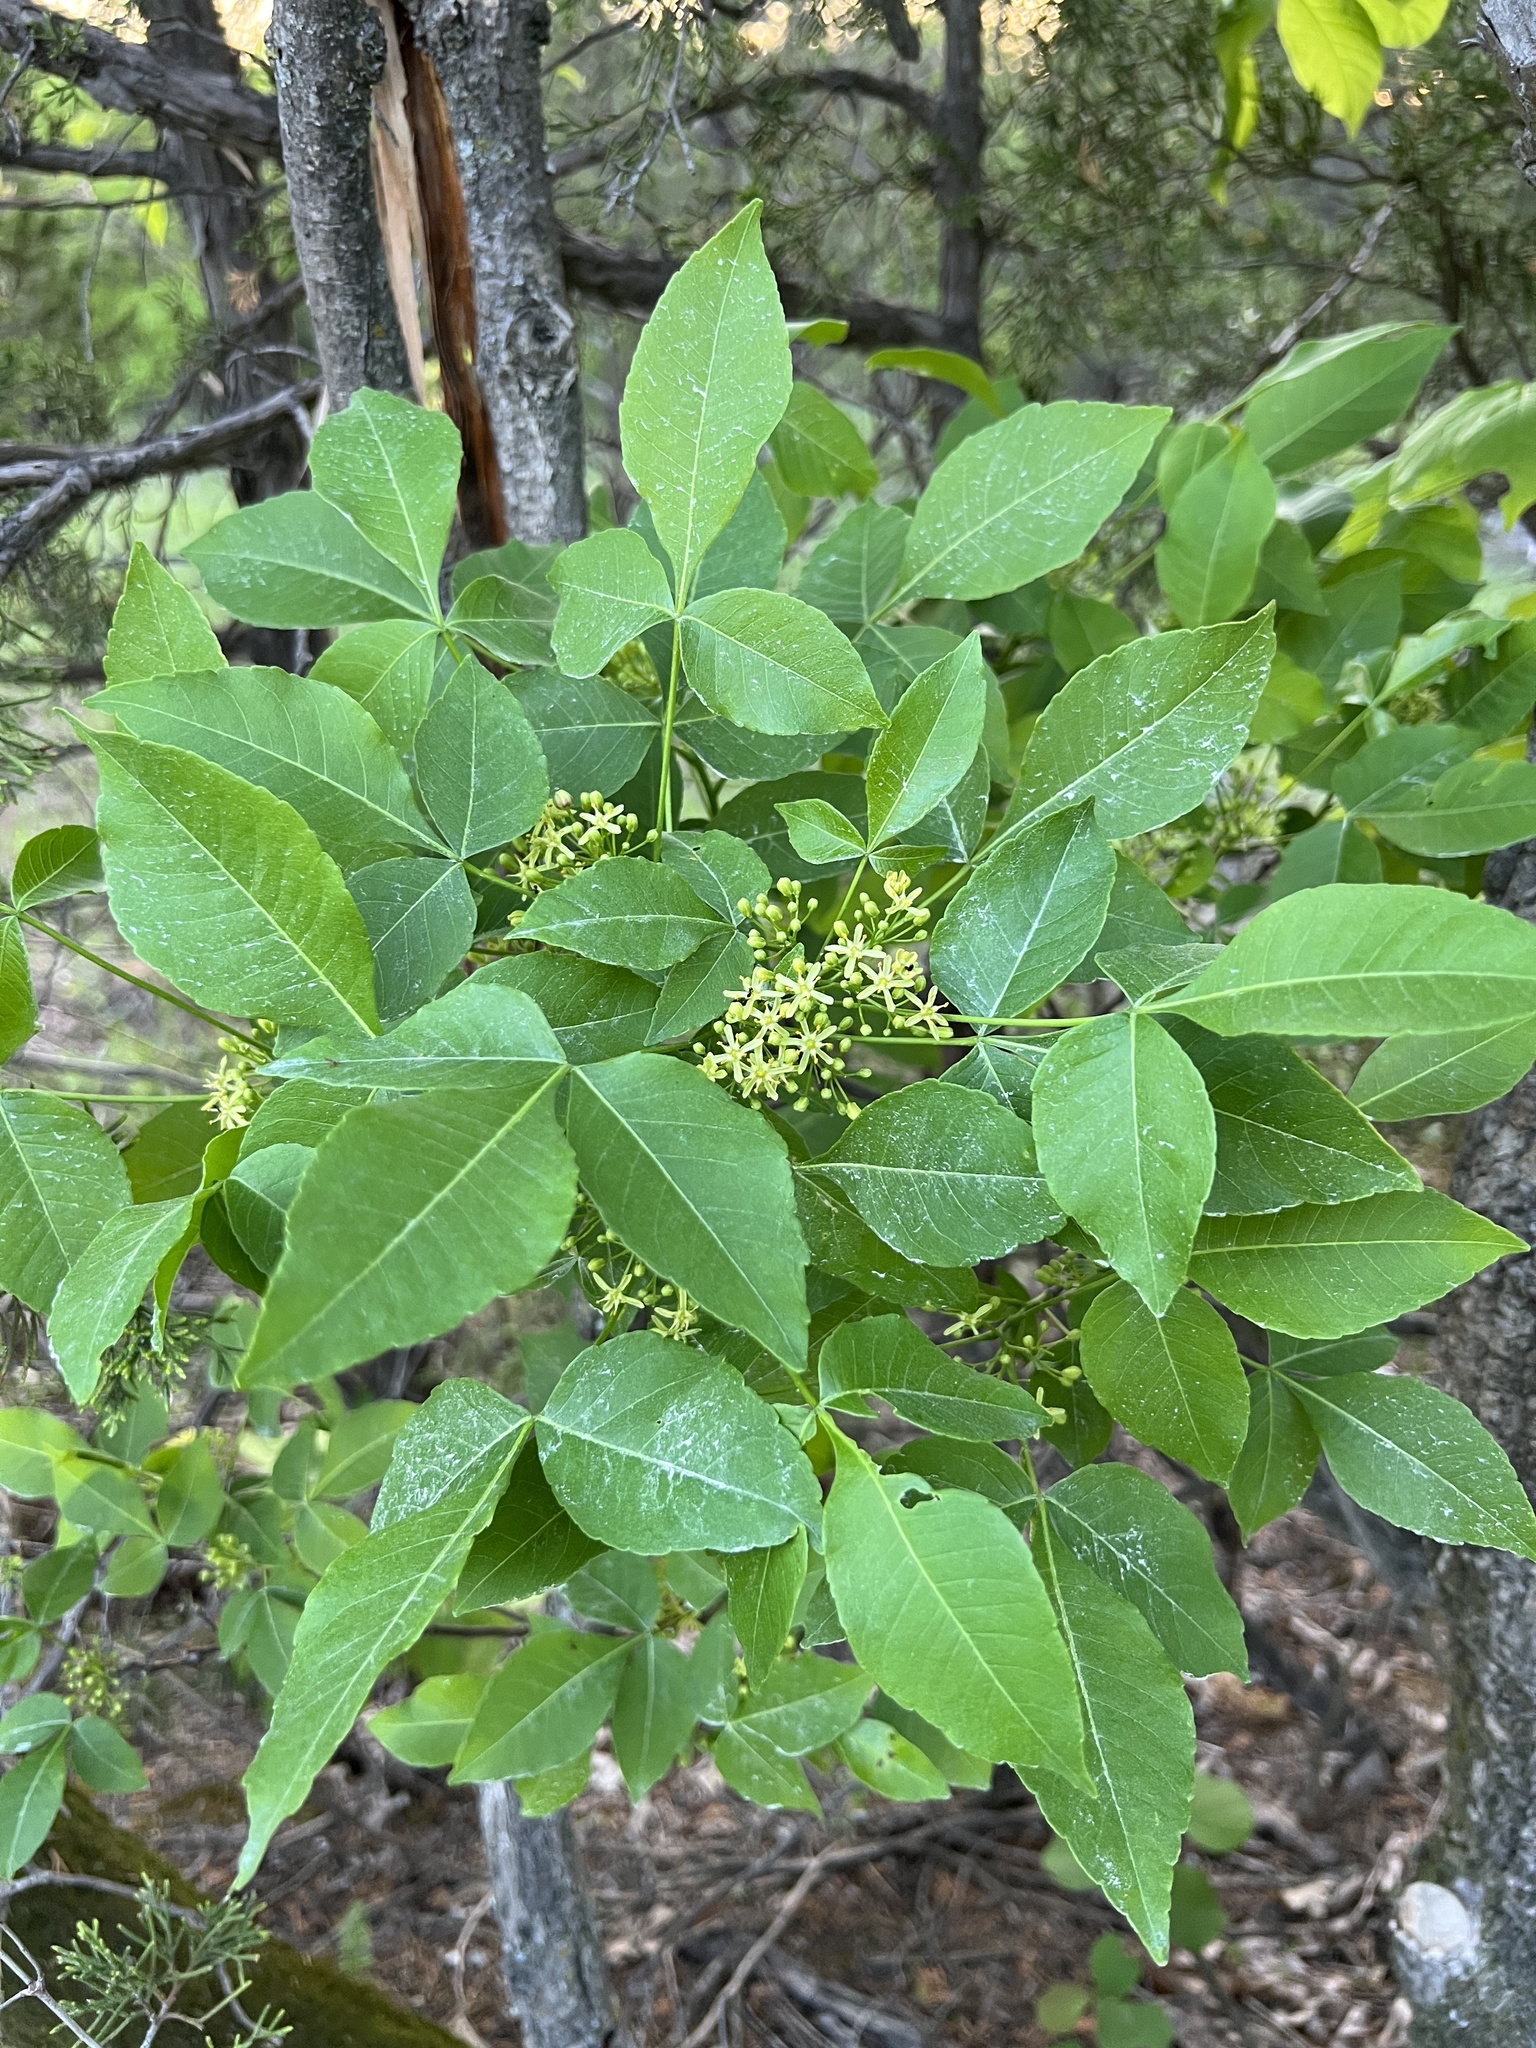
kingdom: Plantae
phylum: Tracheophyta
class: Magnoliopsida
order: Sapindales
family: Rutaceae
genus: Ptelea
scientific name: Ptelea trifoliata
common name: Common hop-tree
